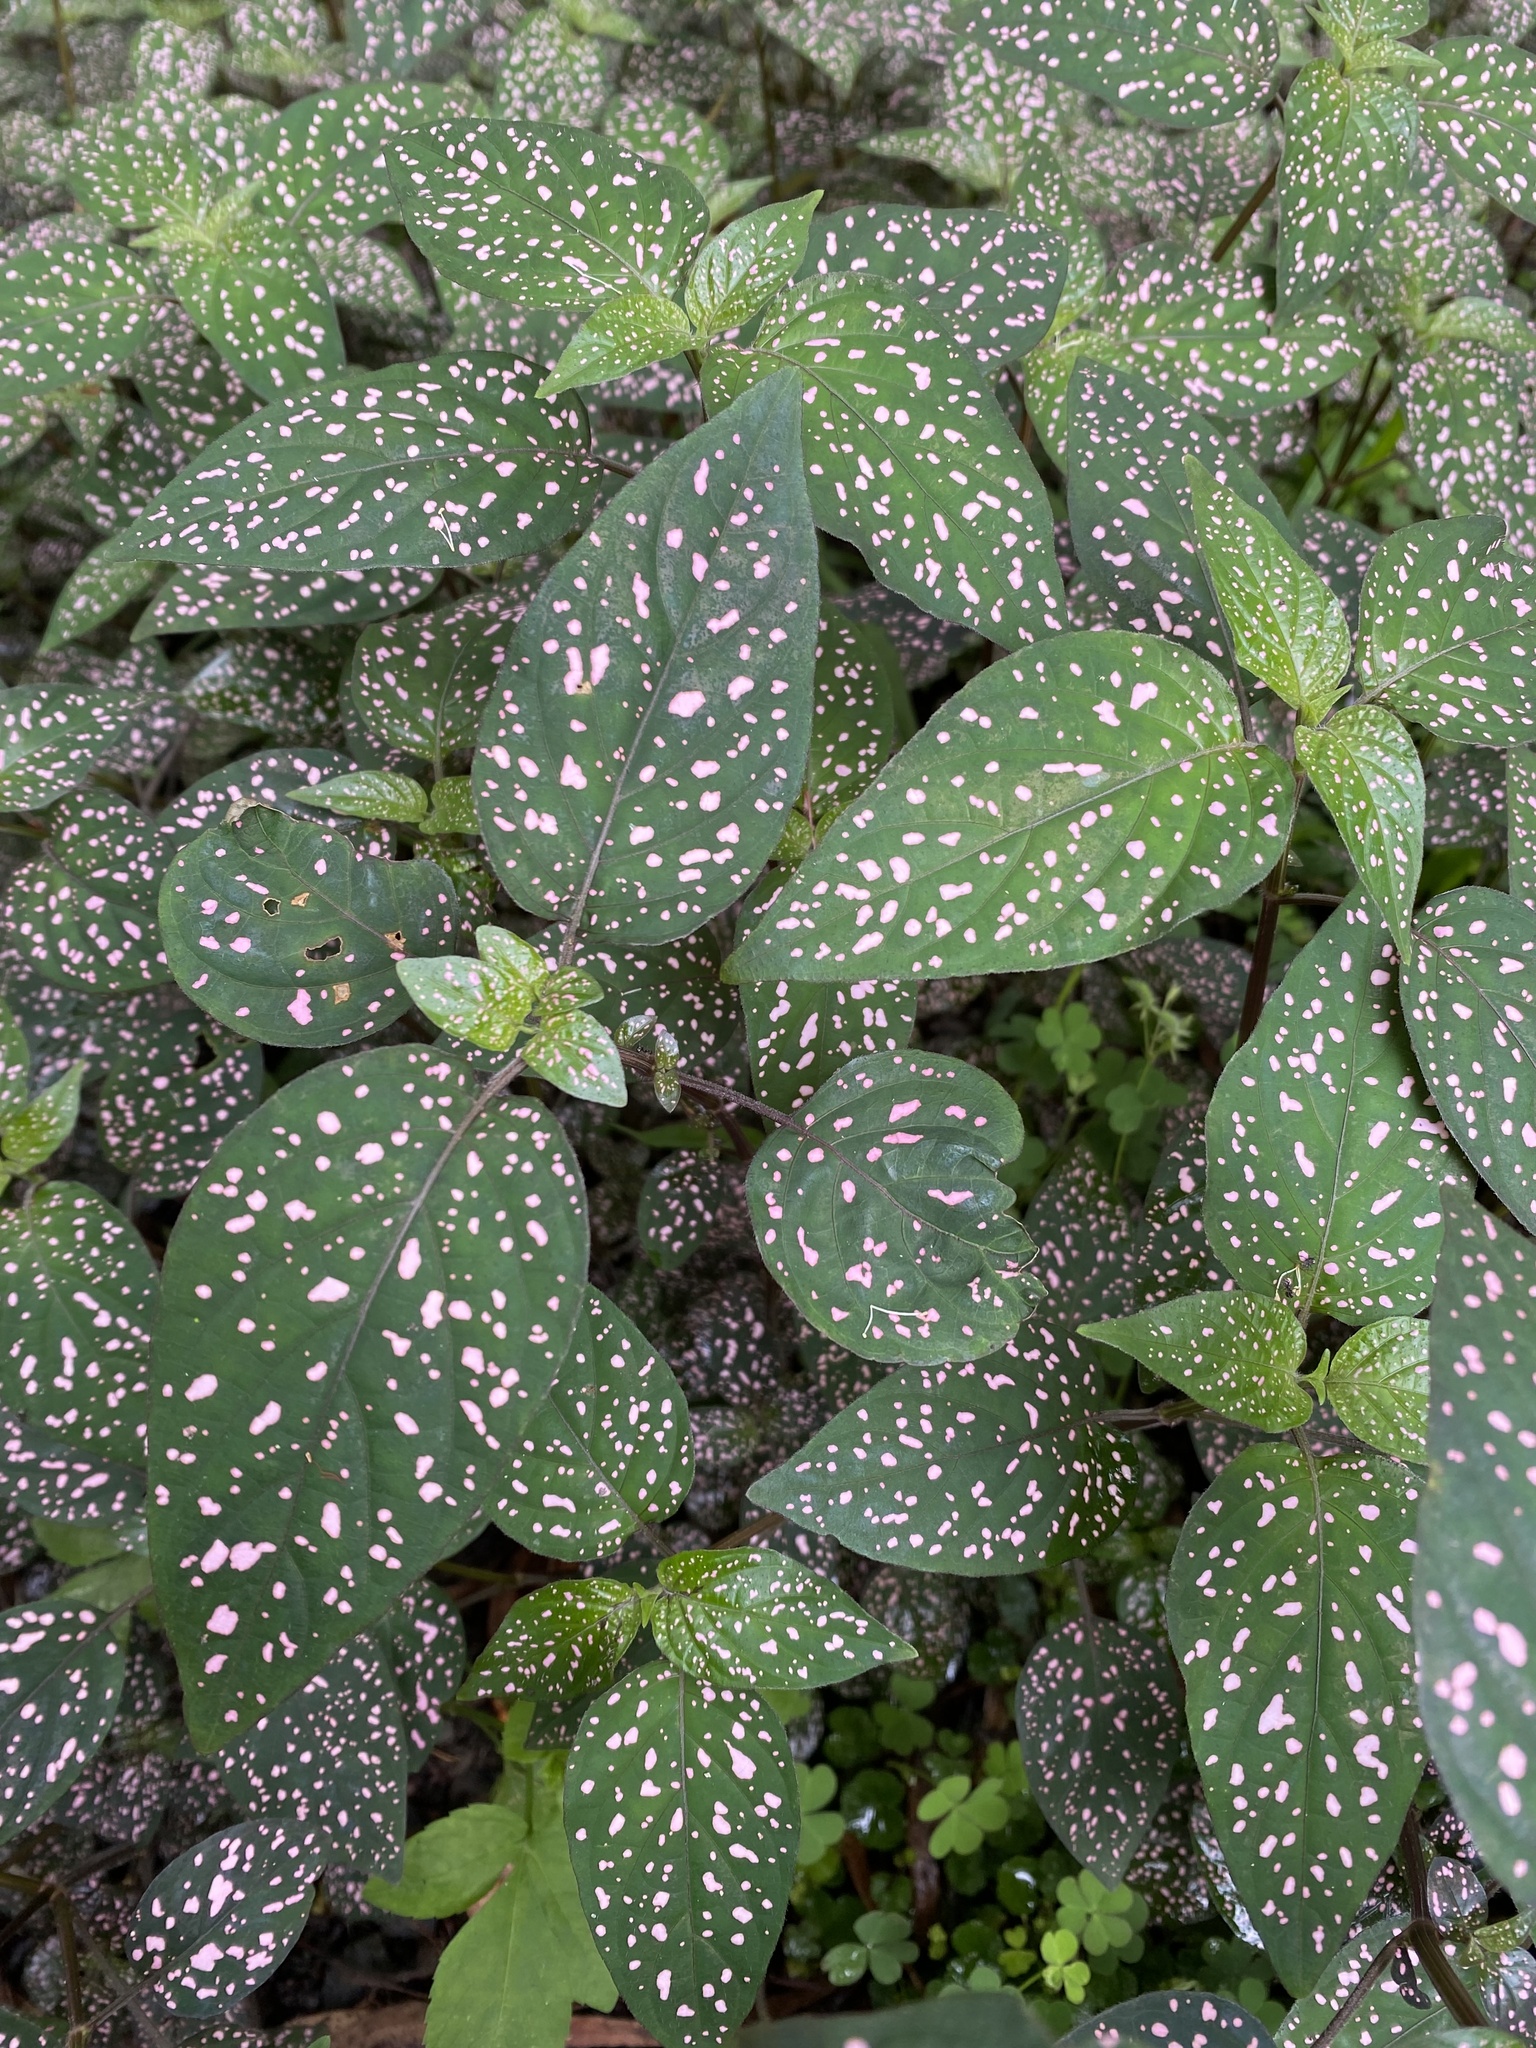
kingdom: Plantae
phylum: Tracheophyta
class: Magnoliopsida
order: Lamiales
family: Acanthaceae
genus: Hypoestes
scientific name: Hypoestes phyllostachya
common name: Polkadot-plant
